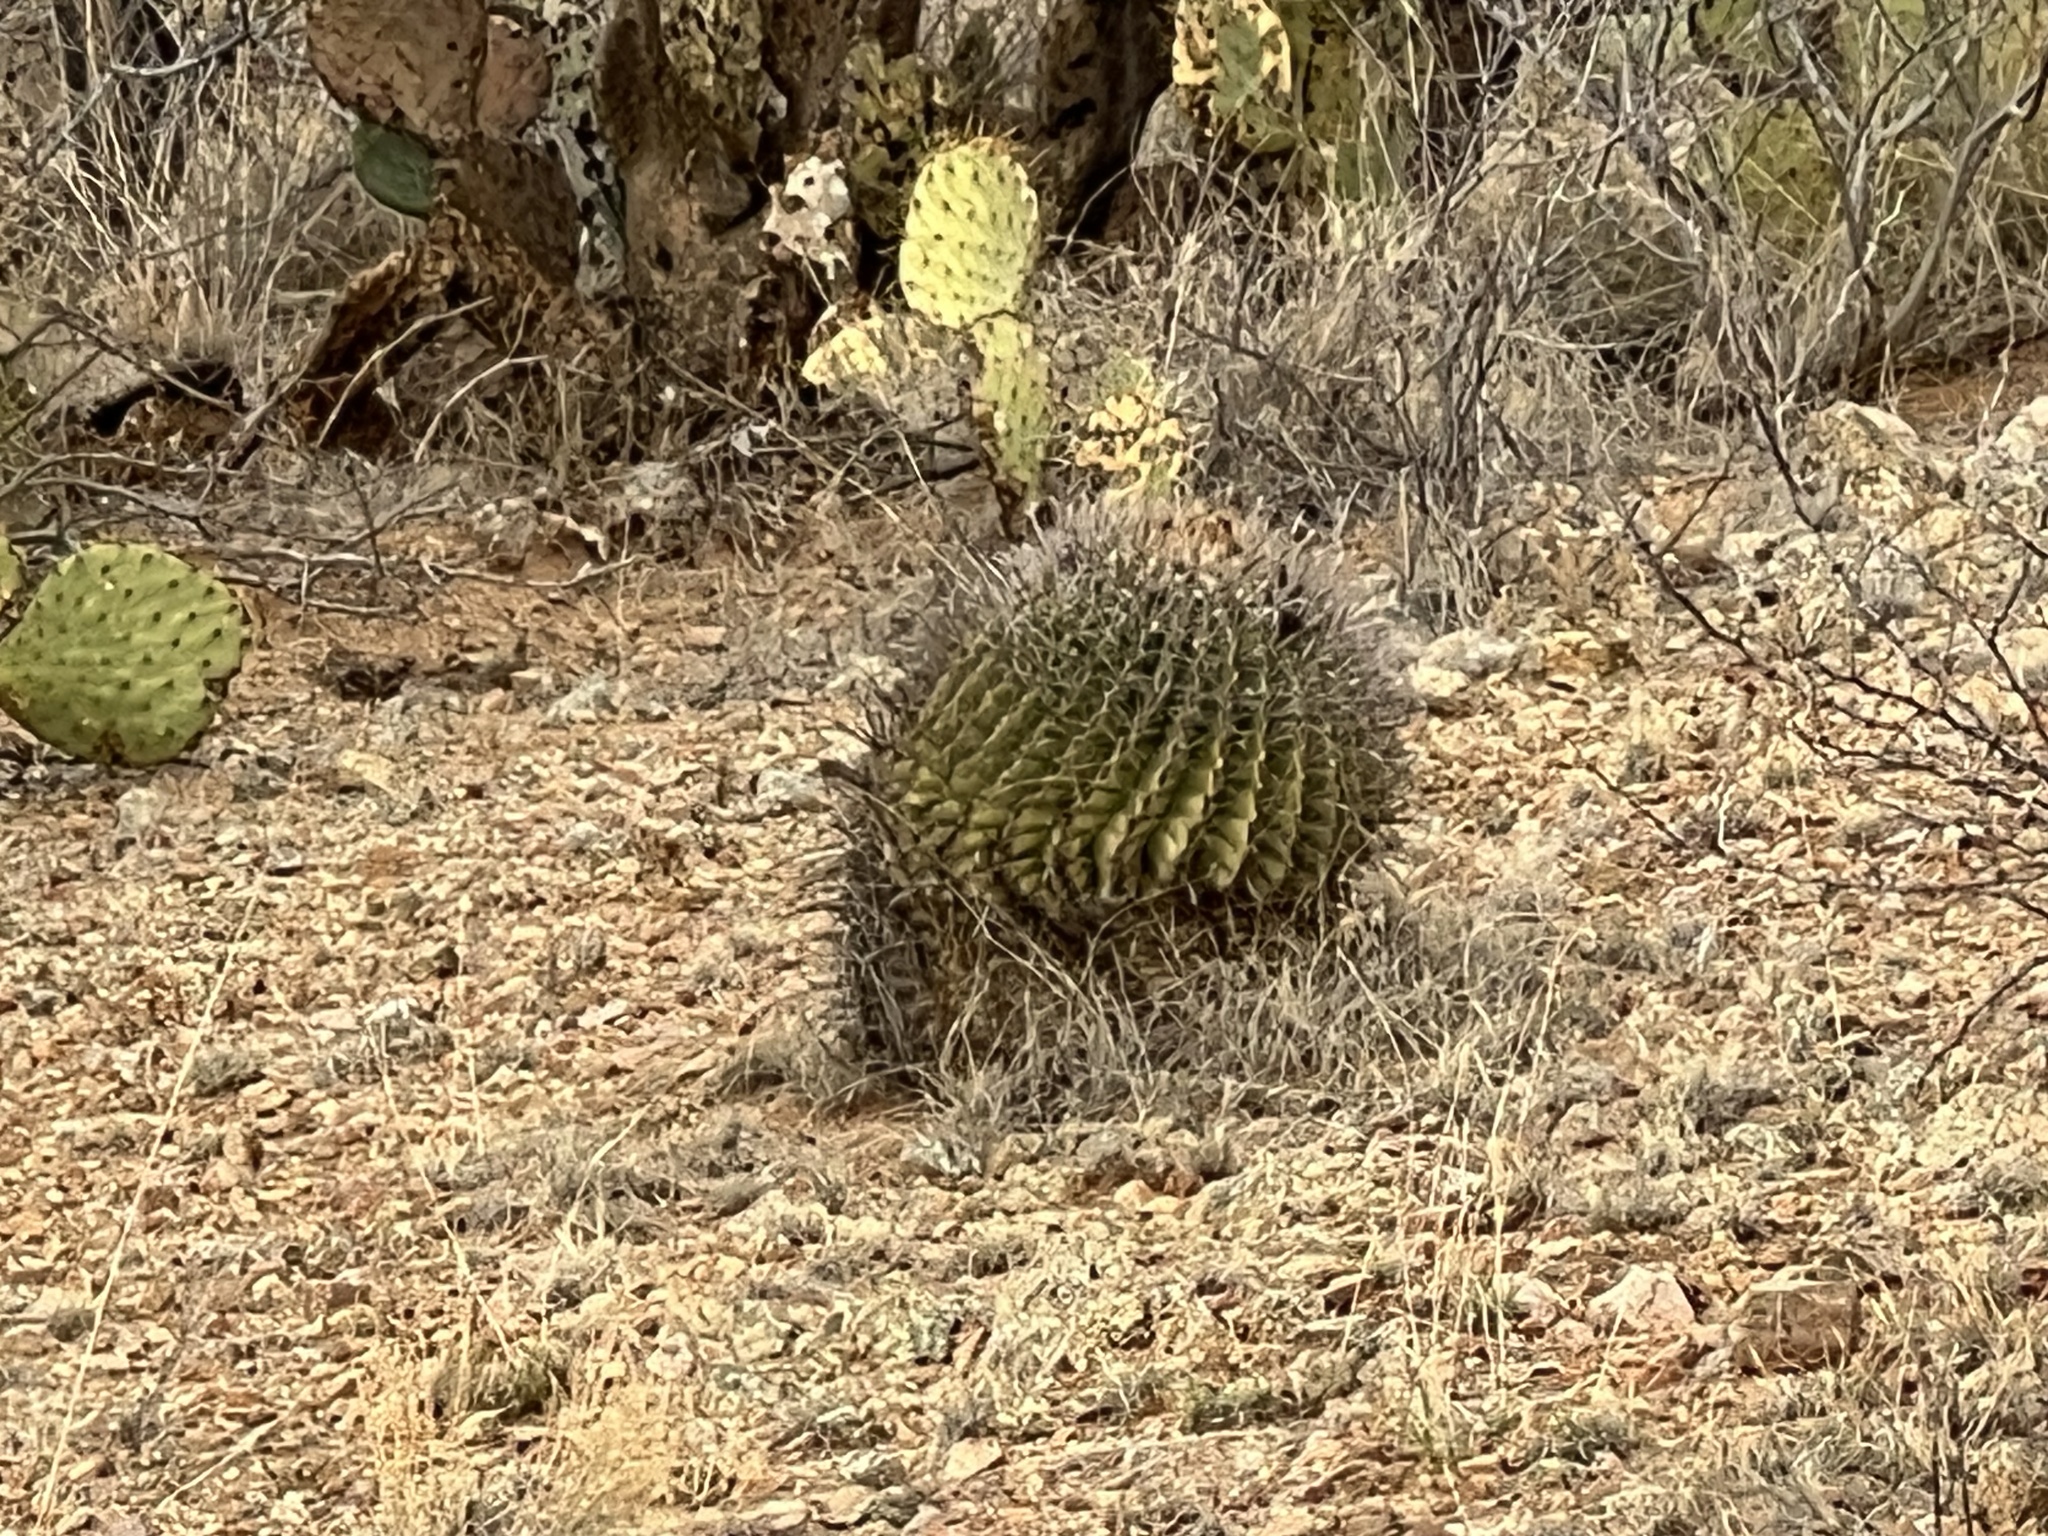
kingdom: Plantae
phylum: Tracheophyta
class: Magnoliopsida
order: Caryophyllales
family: Cactaceae
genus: Ferocactus
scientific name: Ferocactus wislizeni
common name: Candy barrel cactus
